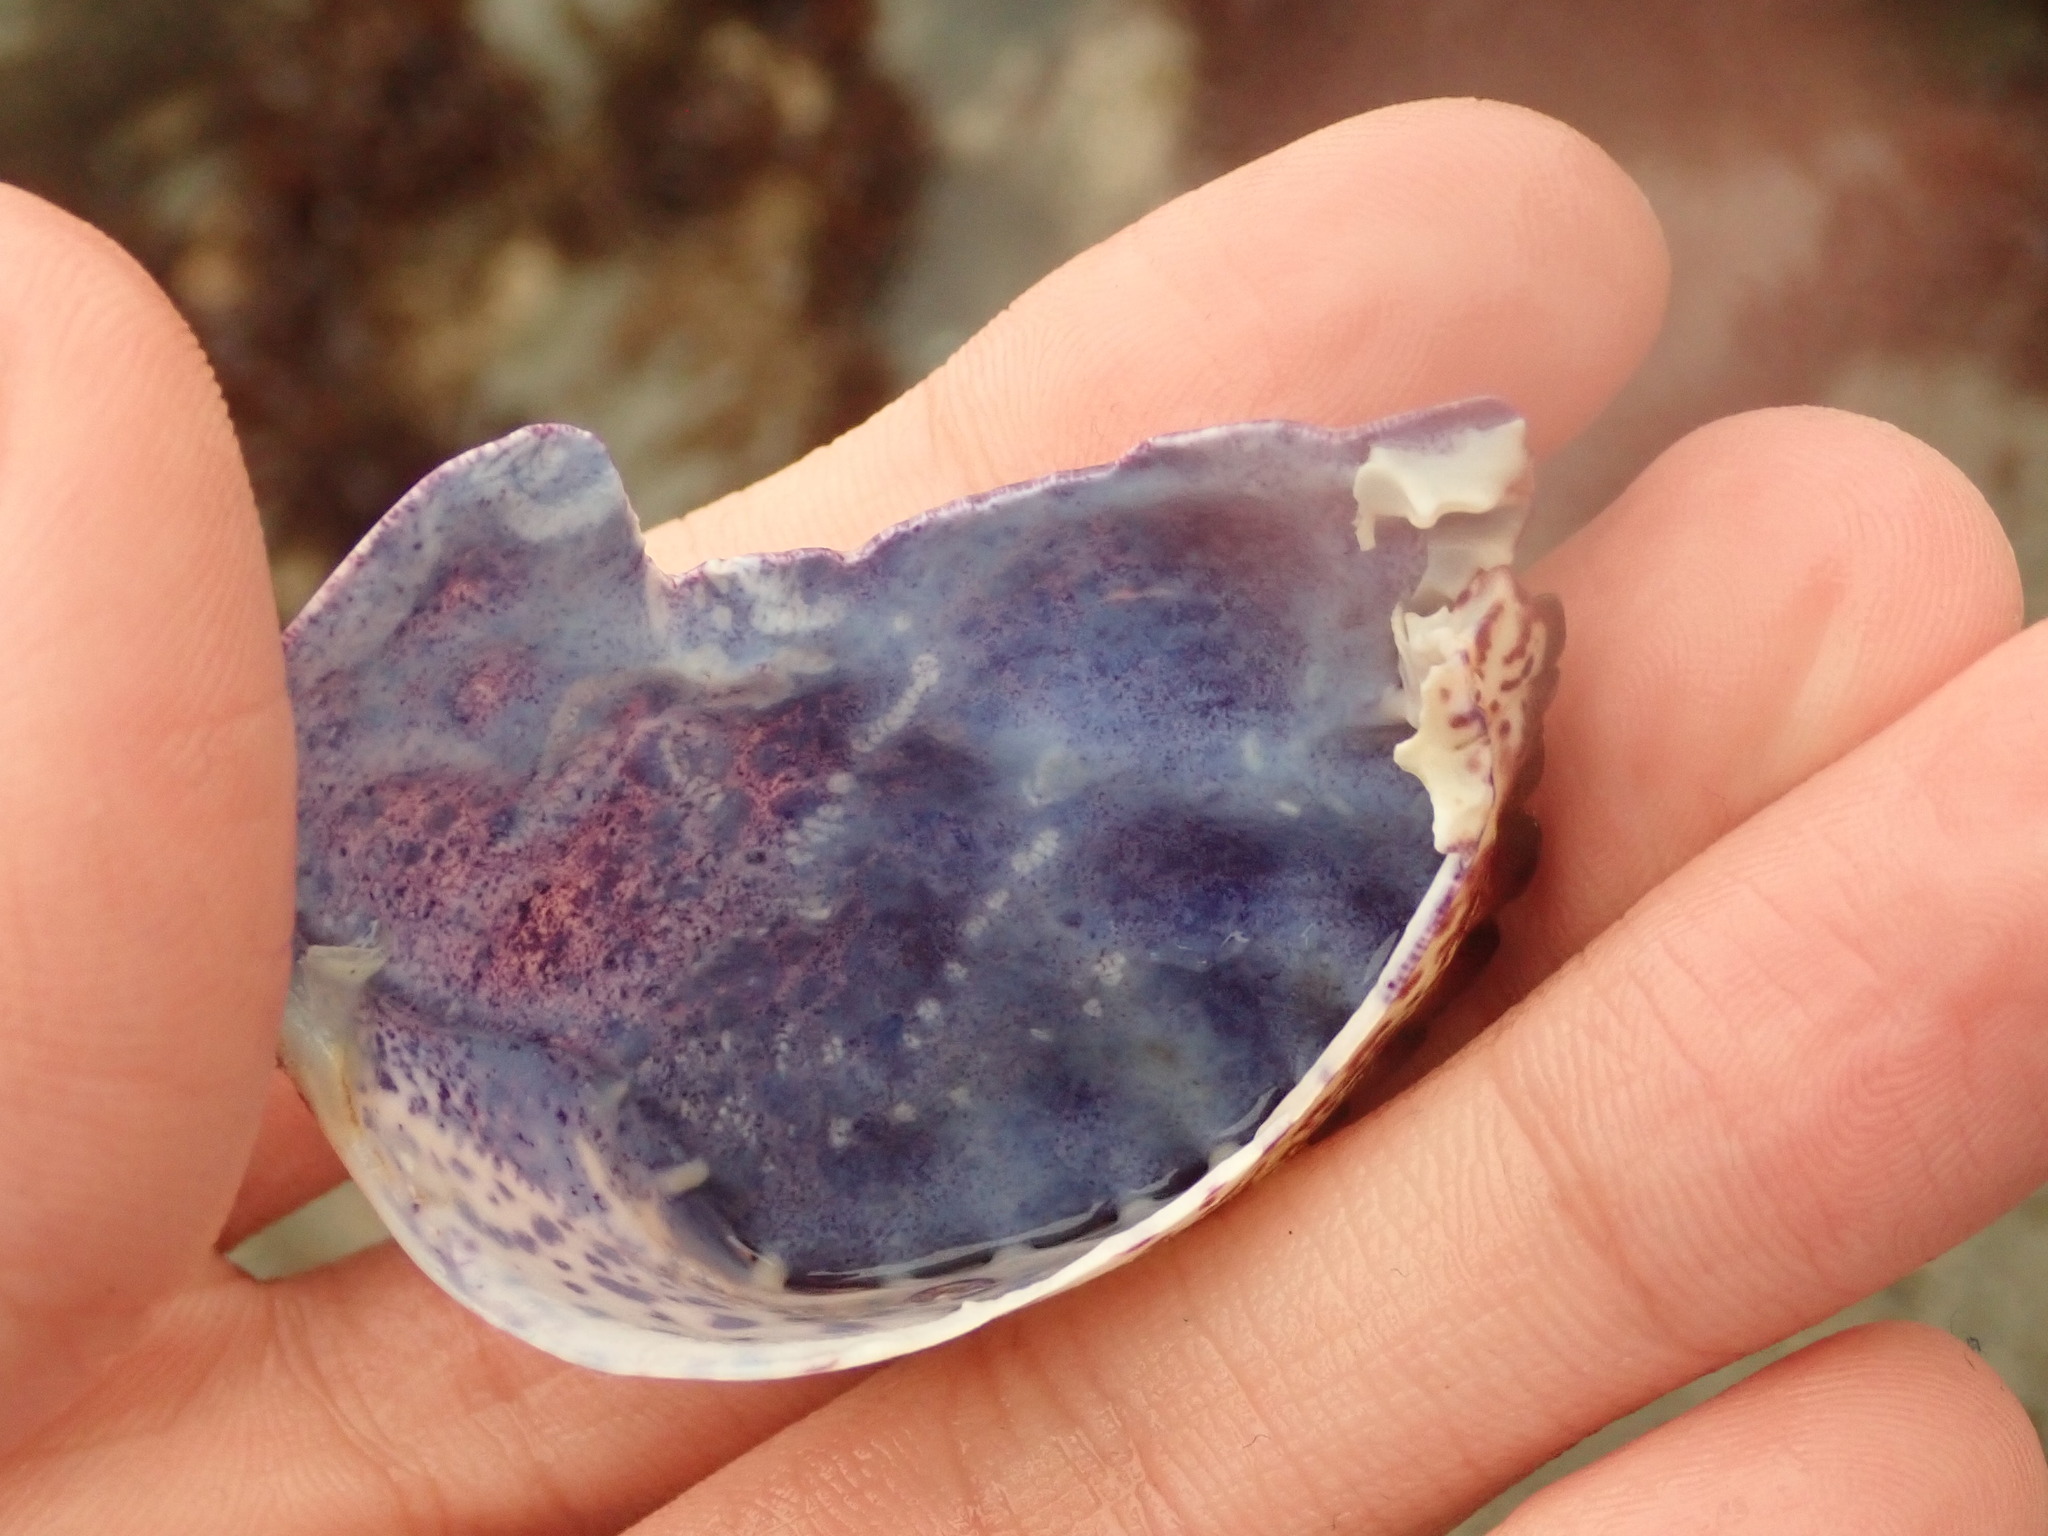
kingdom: Animalia
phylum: Arthropoda
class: Malacostraca
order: Decapoda
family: Cancridae
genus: Romaleon
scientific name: Romaleon antennarium
